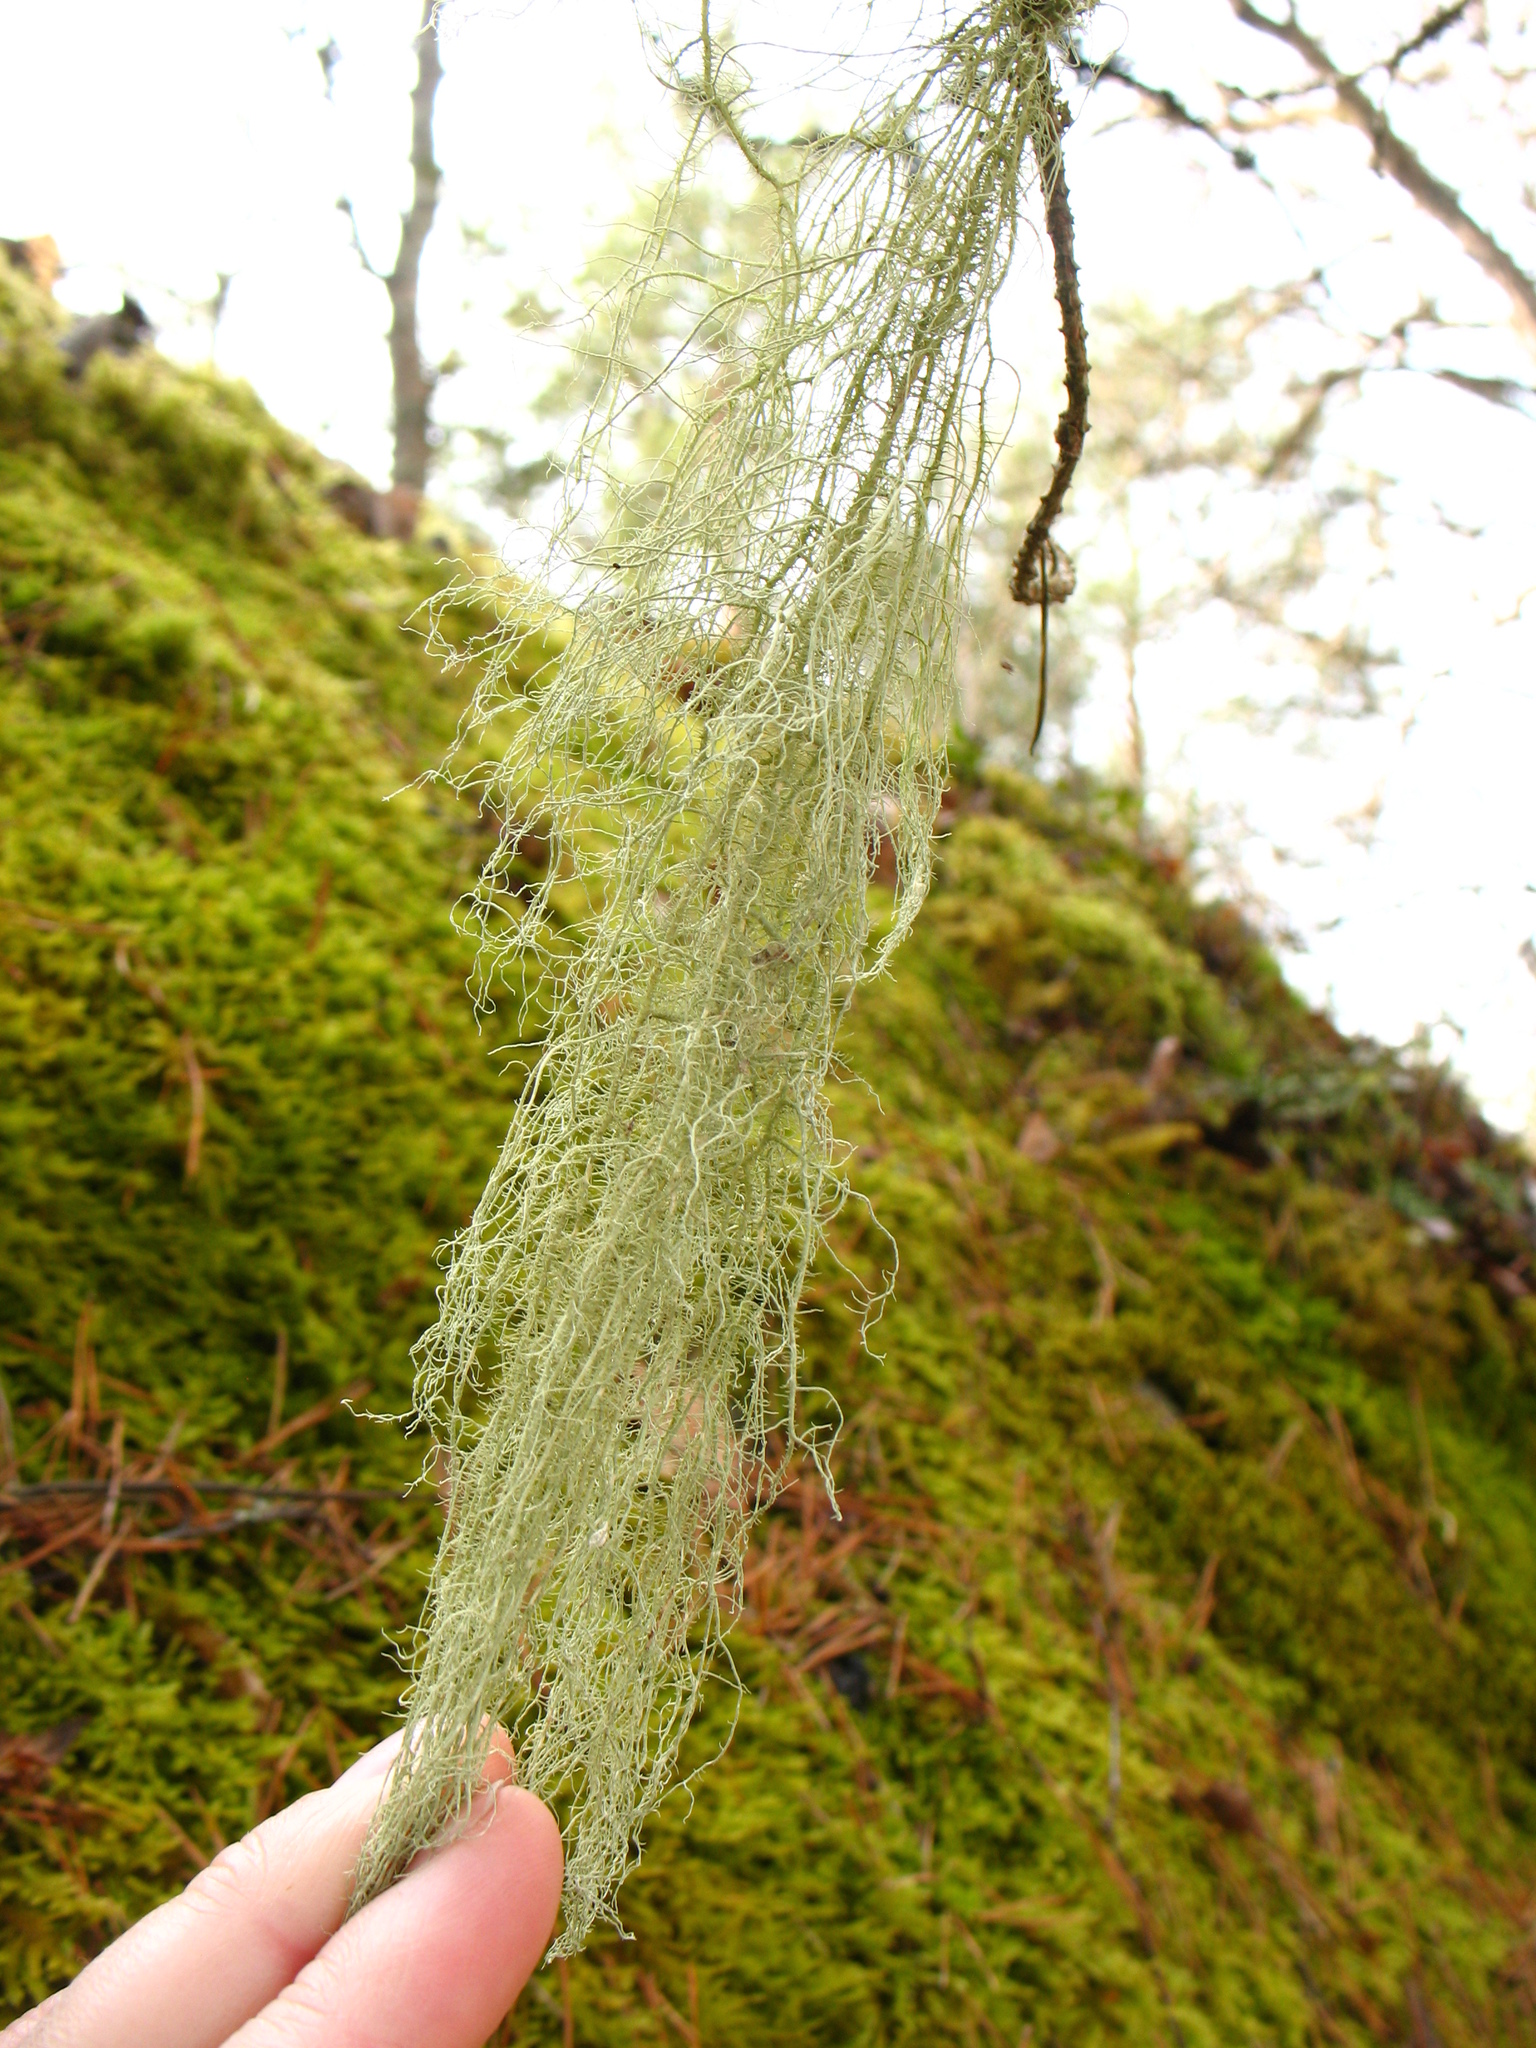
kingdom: Fungi
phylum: Ascomycota
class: Lecanoromycetes
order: Lecanorales
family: Parmeliaceae
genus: Usnea
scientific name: Usnea dasopoga
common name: Fishbone beard lichen
